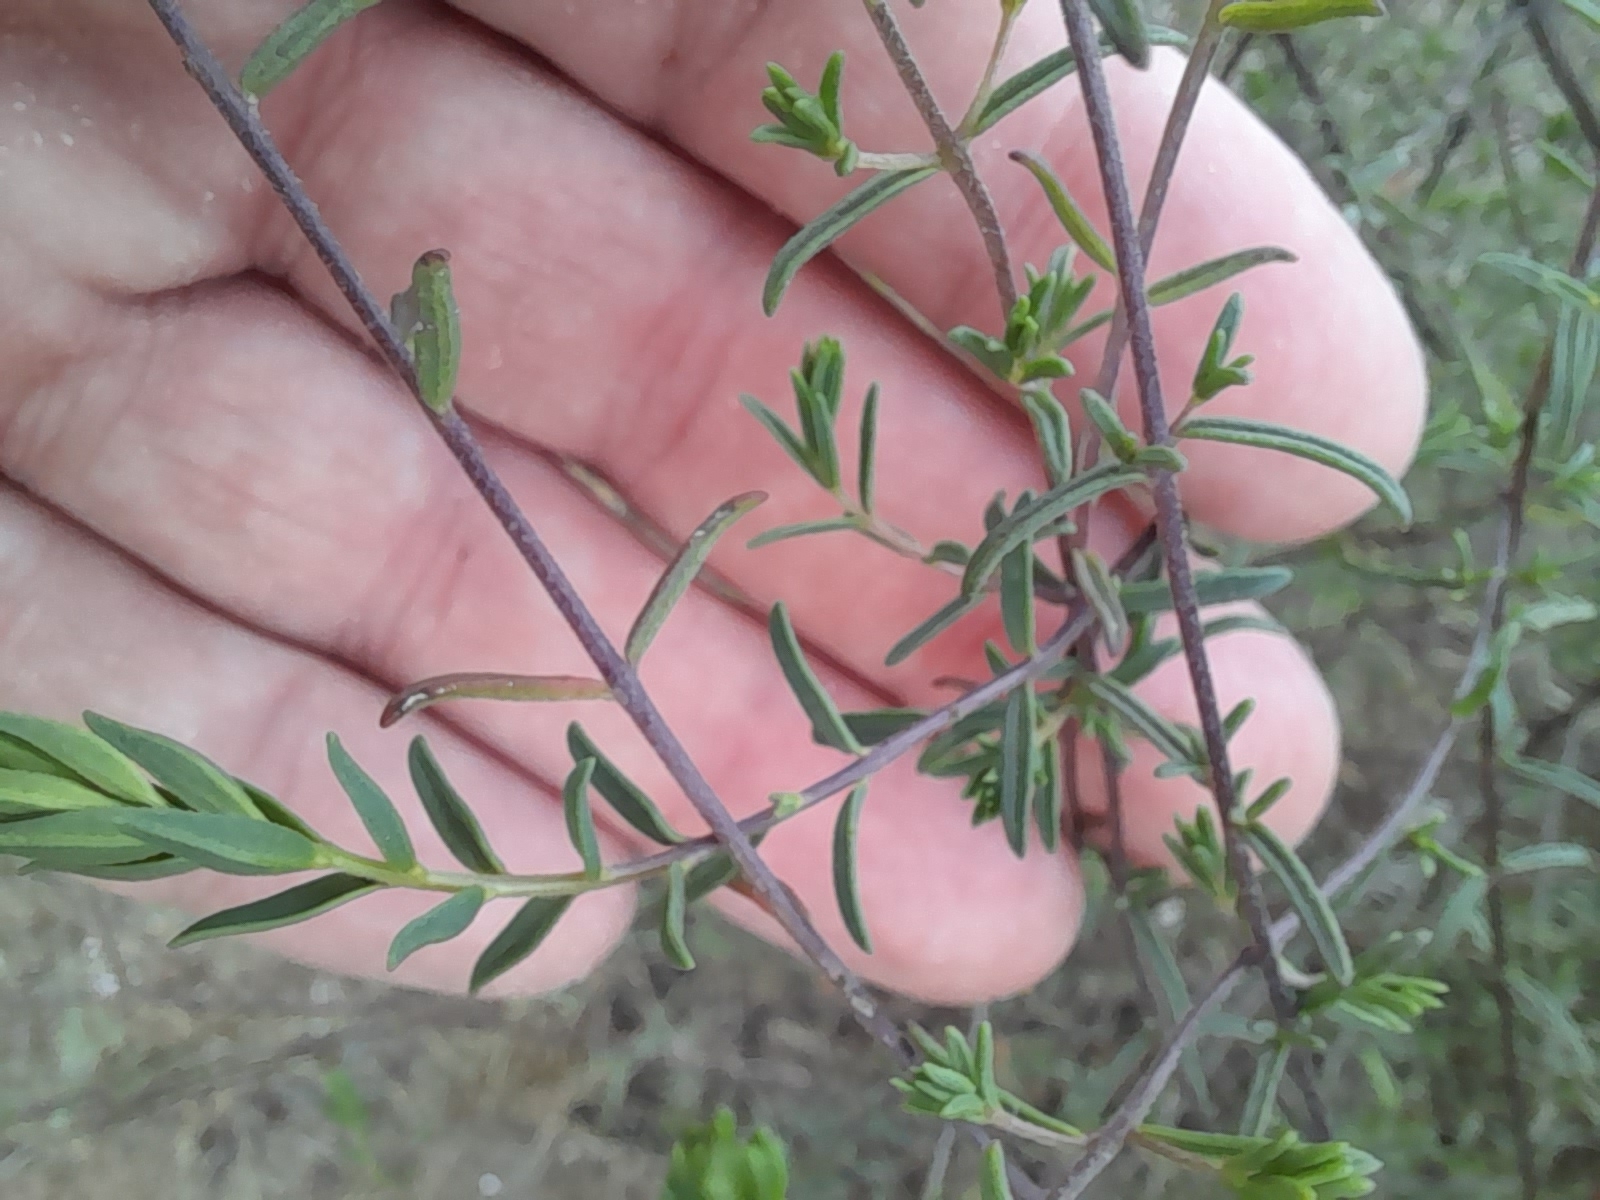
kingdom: Plantae
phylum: Tracheophyta
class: Magnoliopsida
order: Lamiales
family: Orobanchaceae
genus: Odontites
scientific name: Odontites luteus
